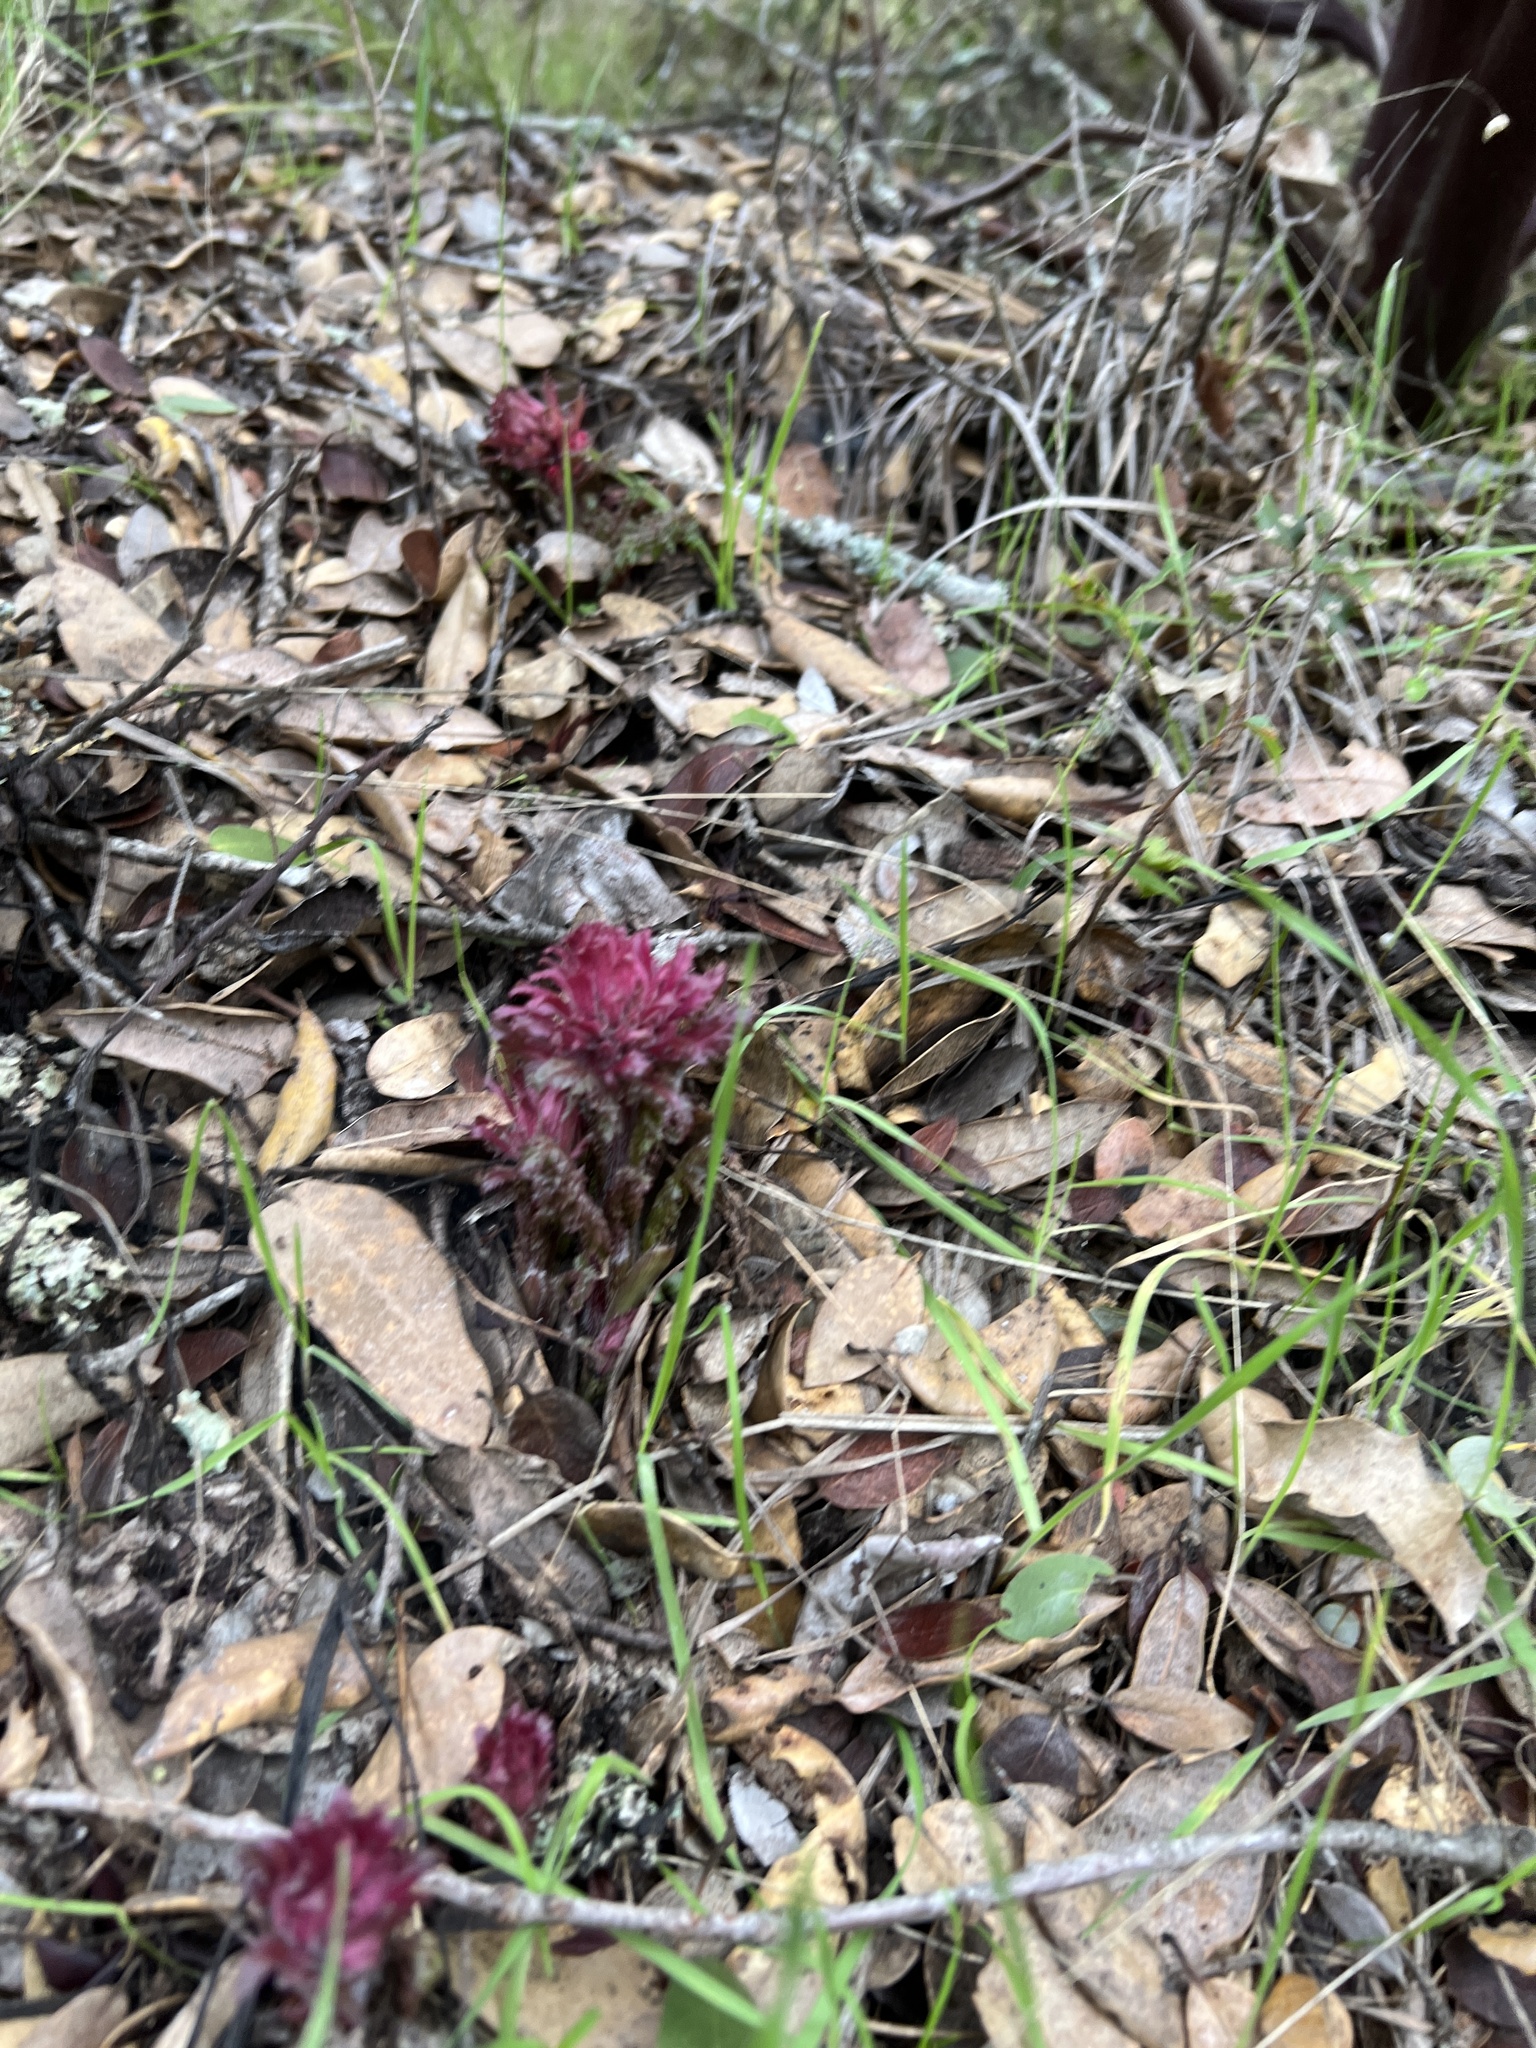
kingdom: Plantae
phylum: Tracheophyta
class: Magnoliopsida
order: Lamiales
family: Orobanchaceae
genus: Pedicularis
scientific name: Pedicularis densiflora
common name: Indian warrior
